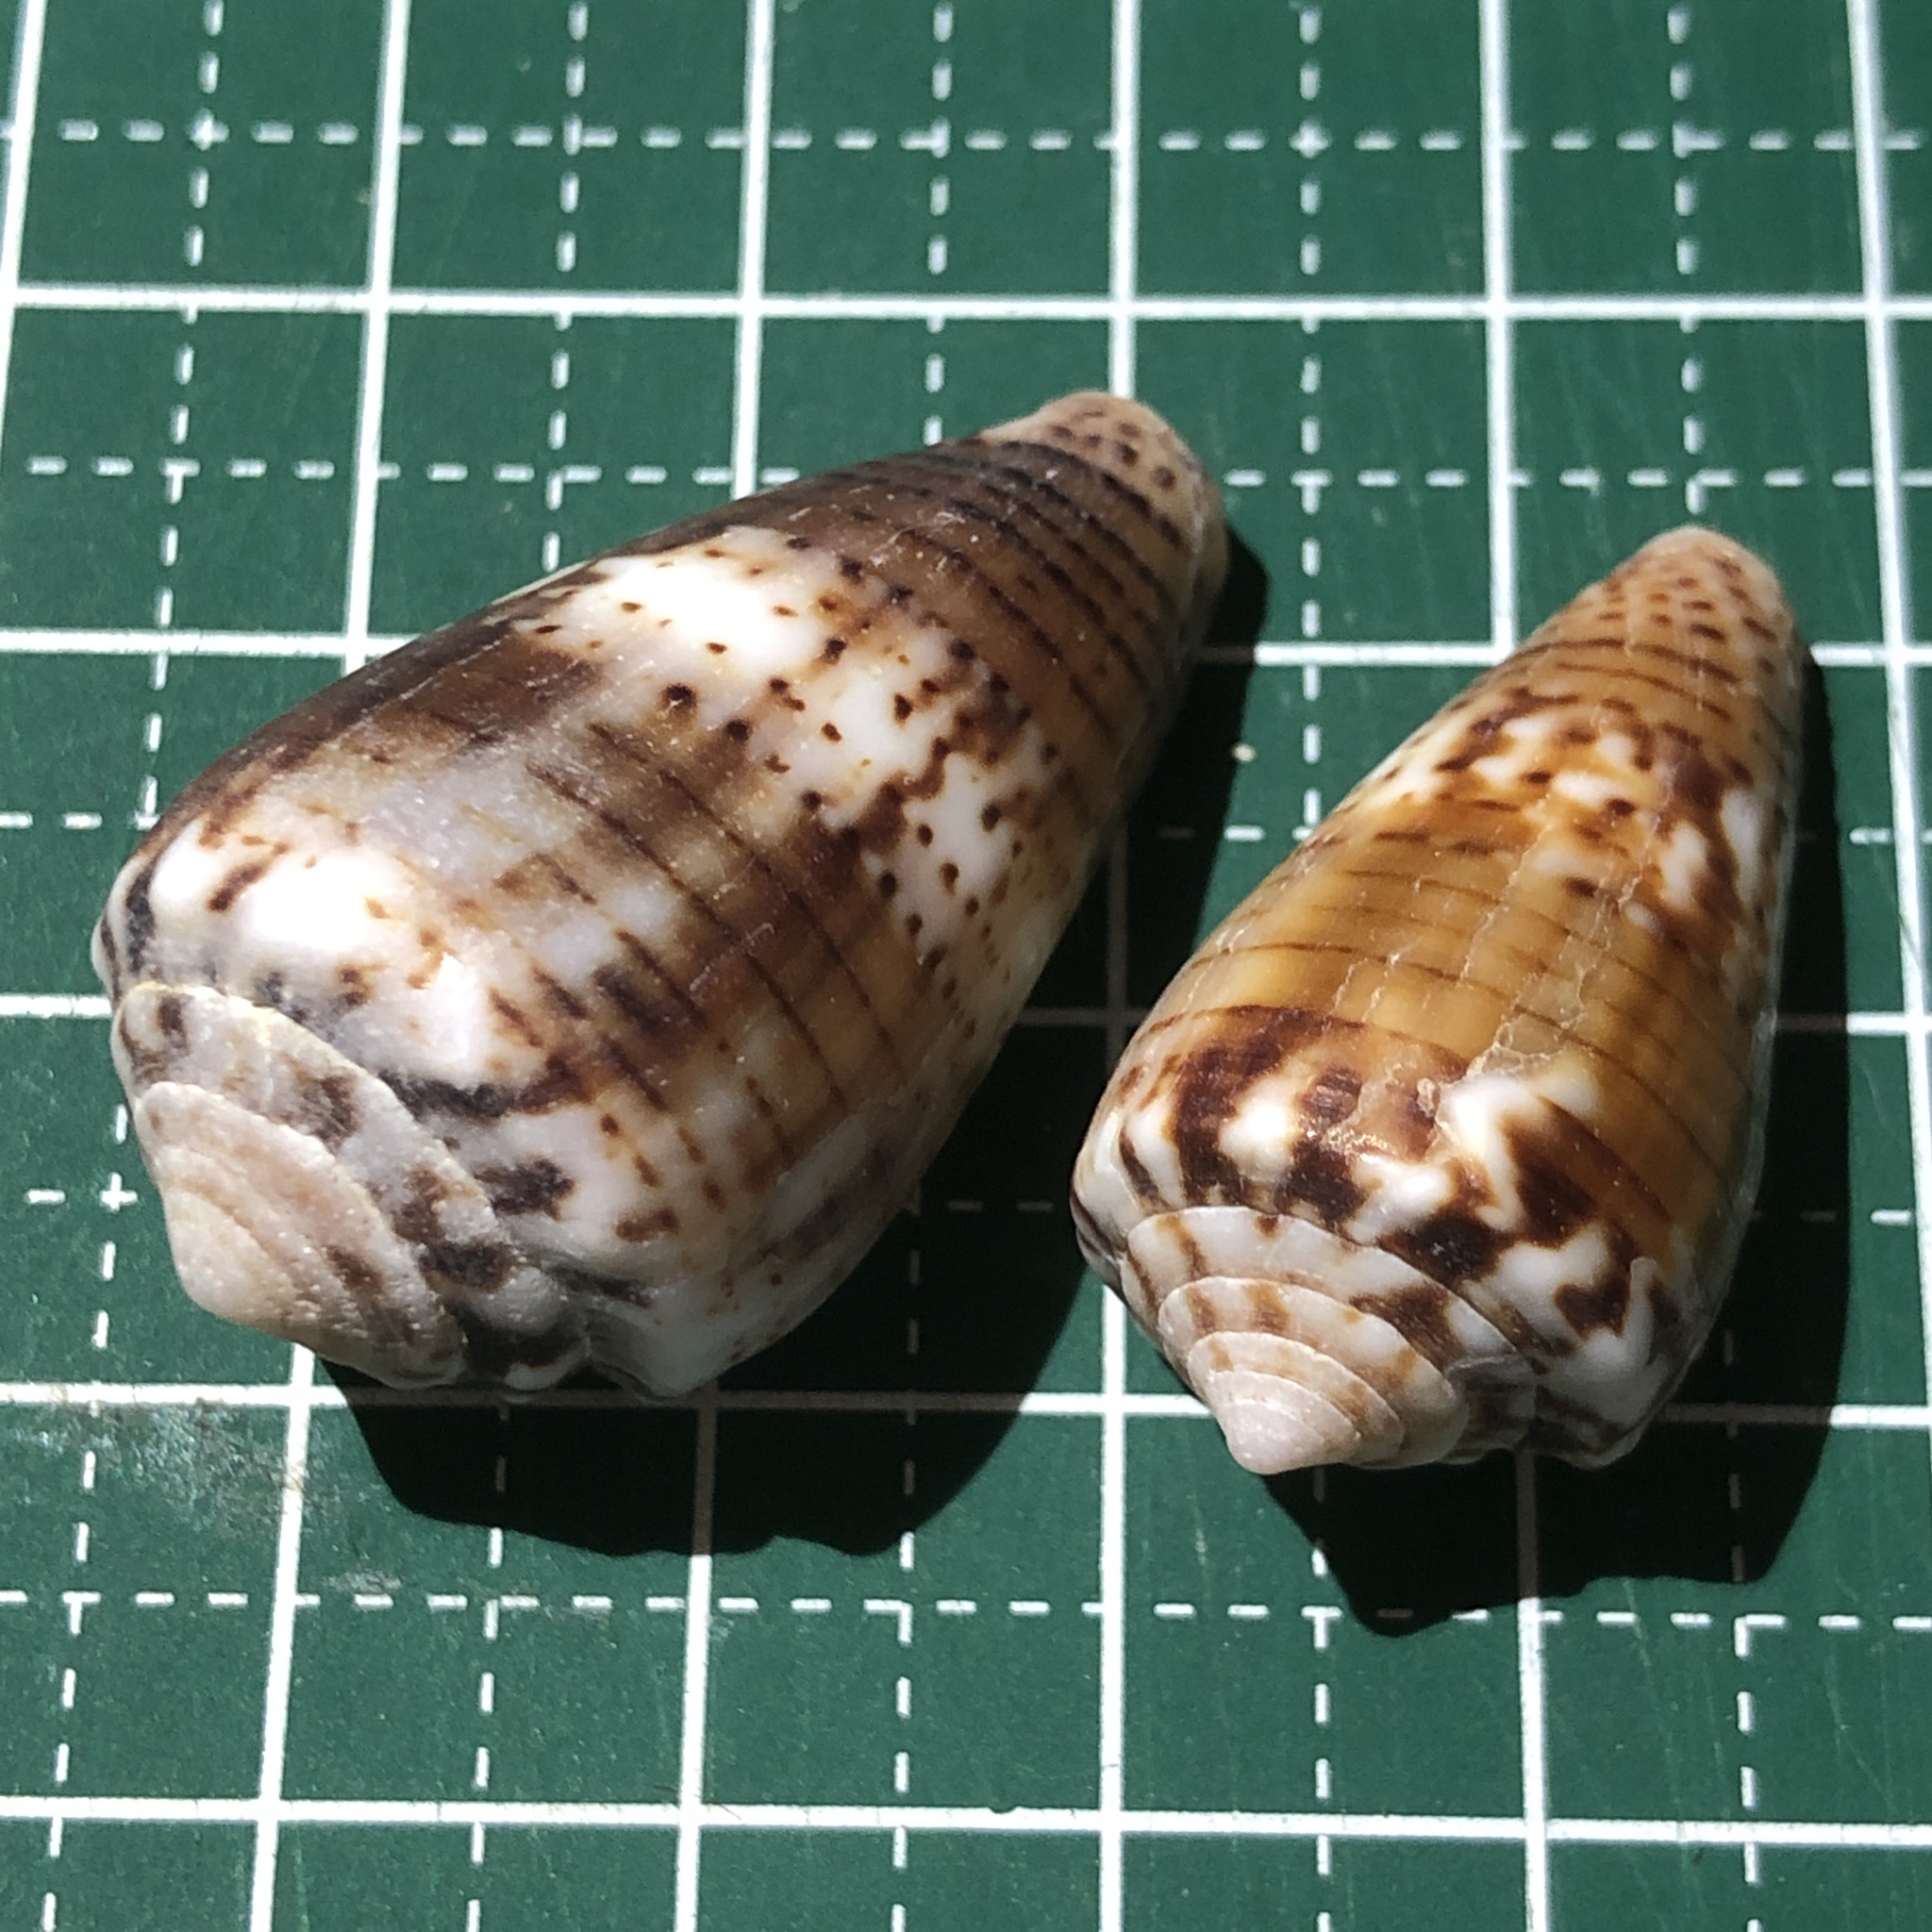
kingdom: Animalia
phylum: Mollusca
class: Gastropoda
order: Neogastropoda
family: Conidae
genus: Conus
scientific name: Conus boeticus
